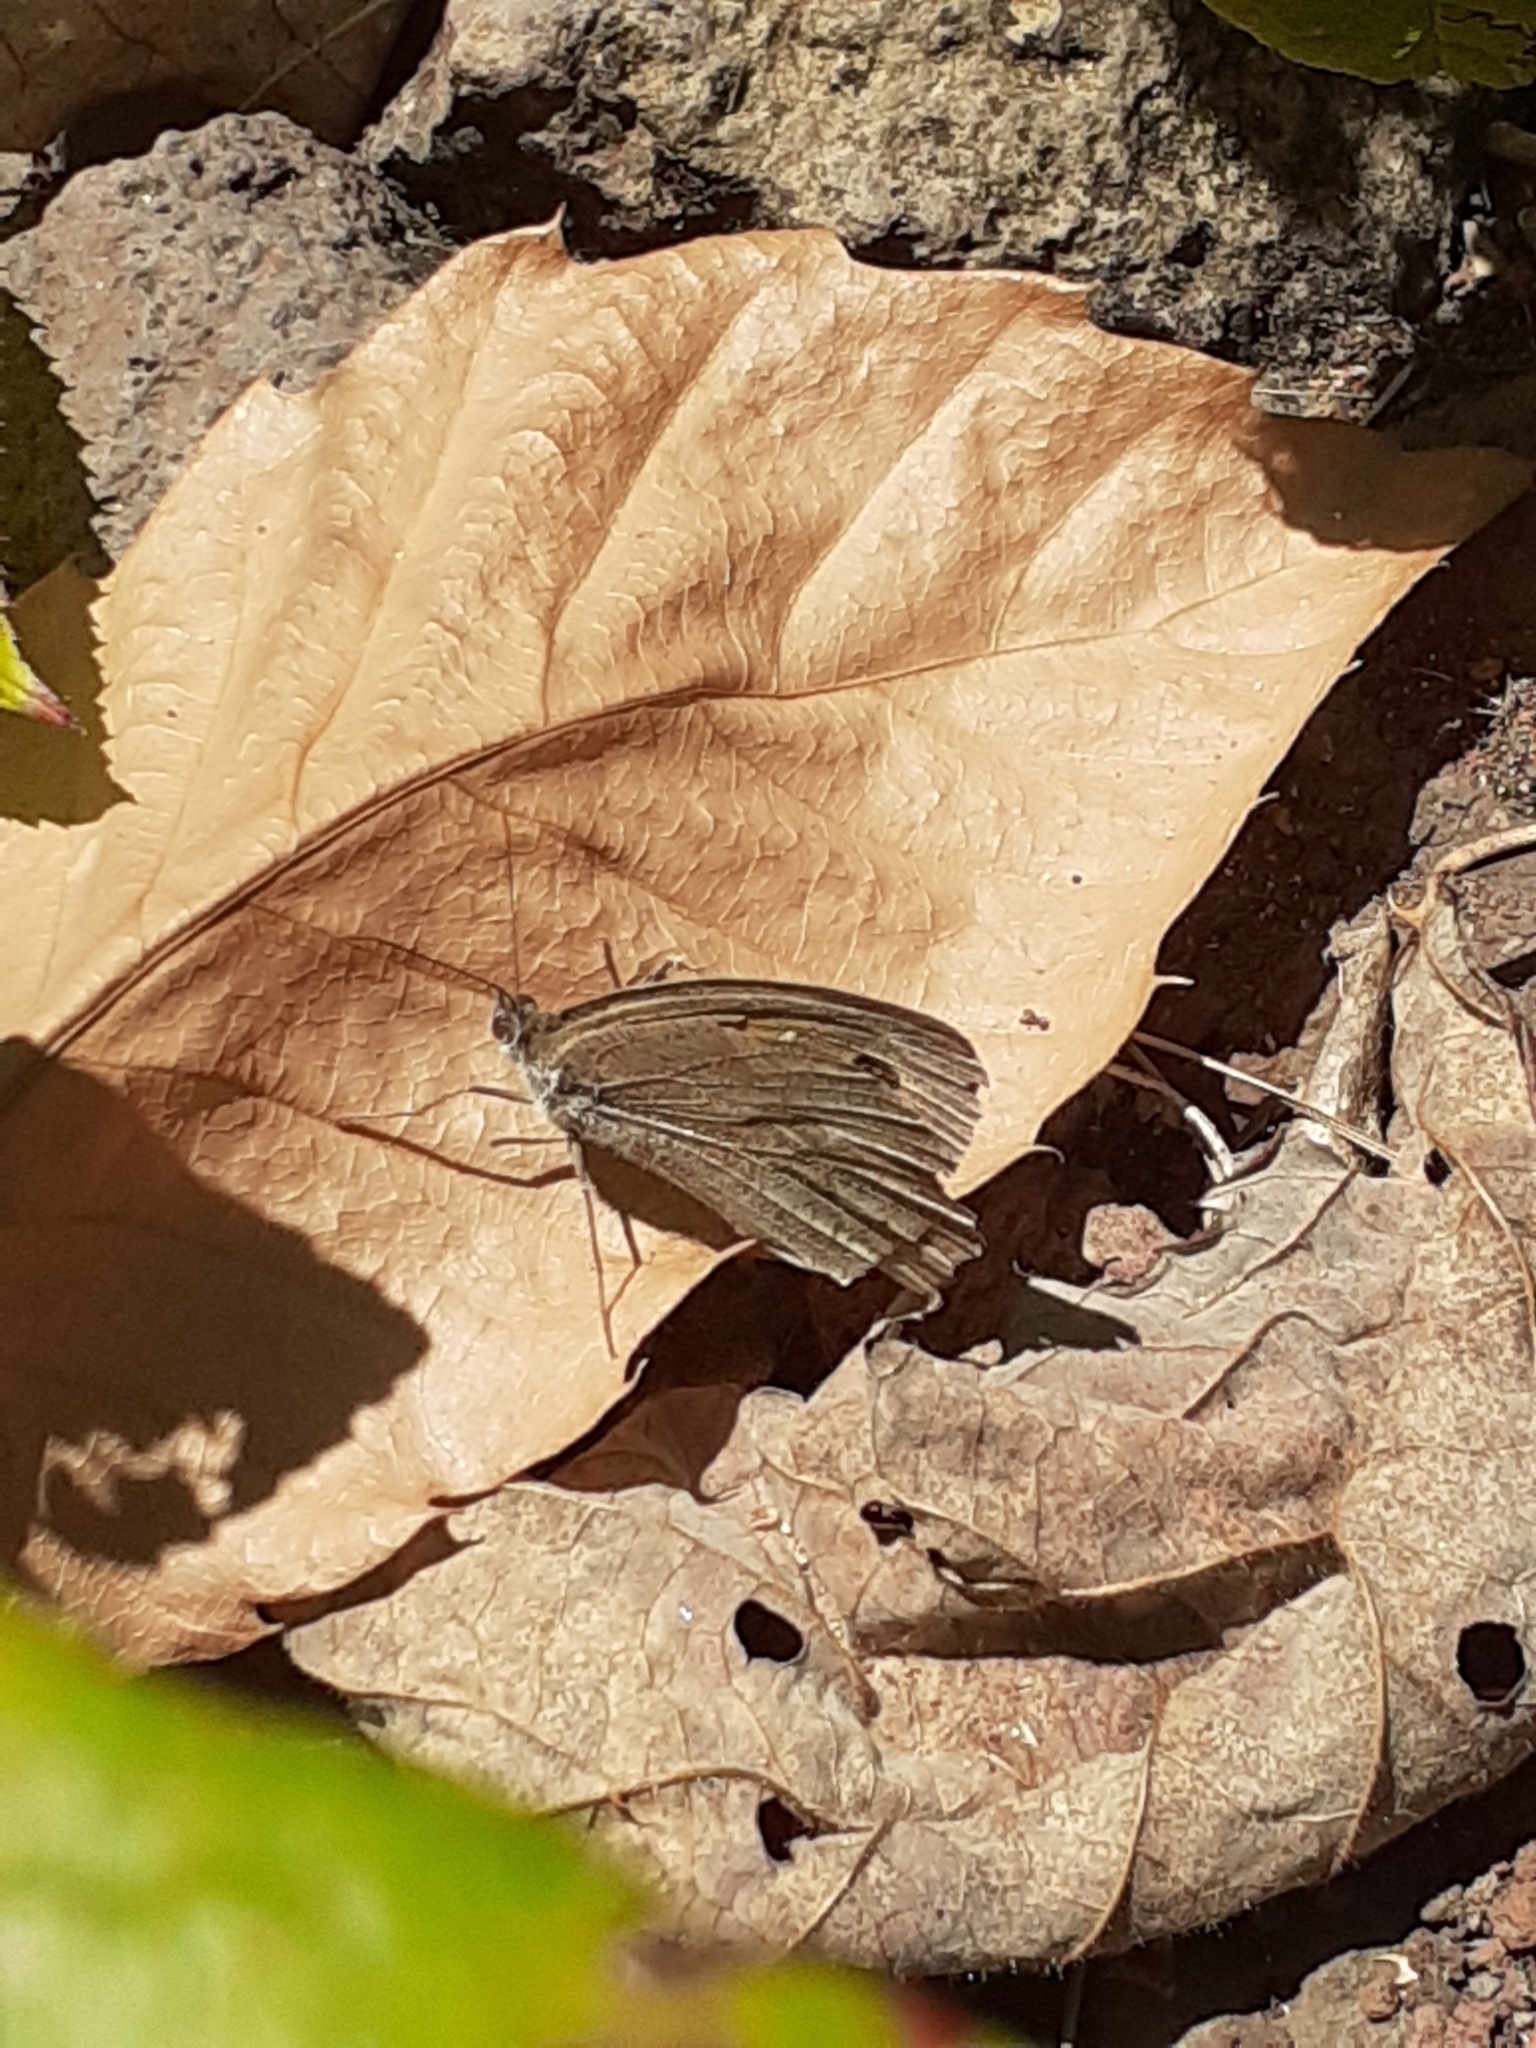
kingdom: Animalia
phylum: Arthropoda
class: Insecta
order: Lepidoptera
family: Nymphalidae
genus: Maniola
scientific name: Maniola jurtina
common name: Meadow brown
